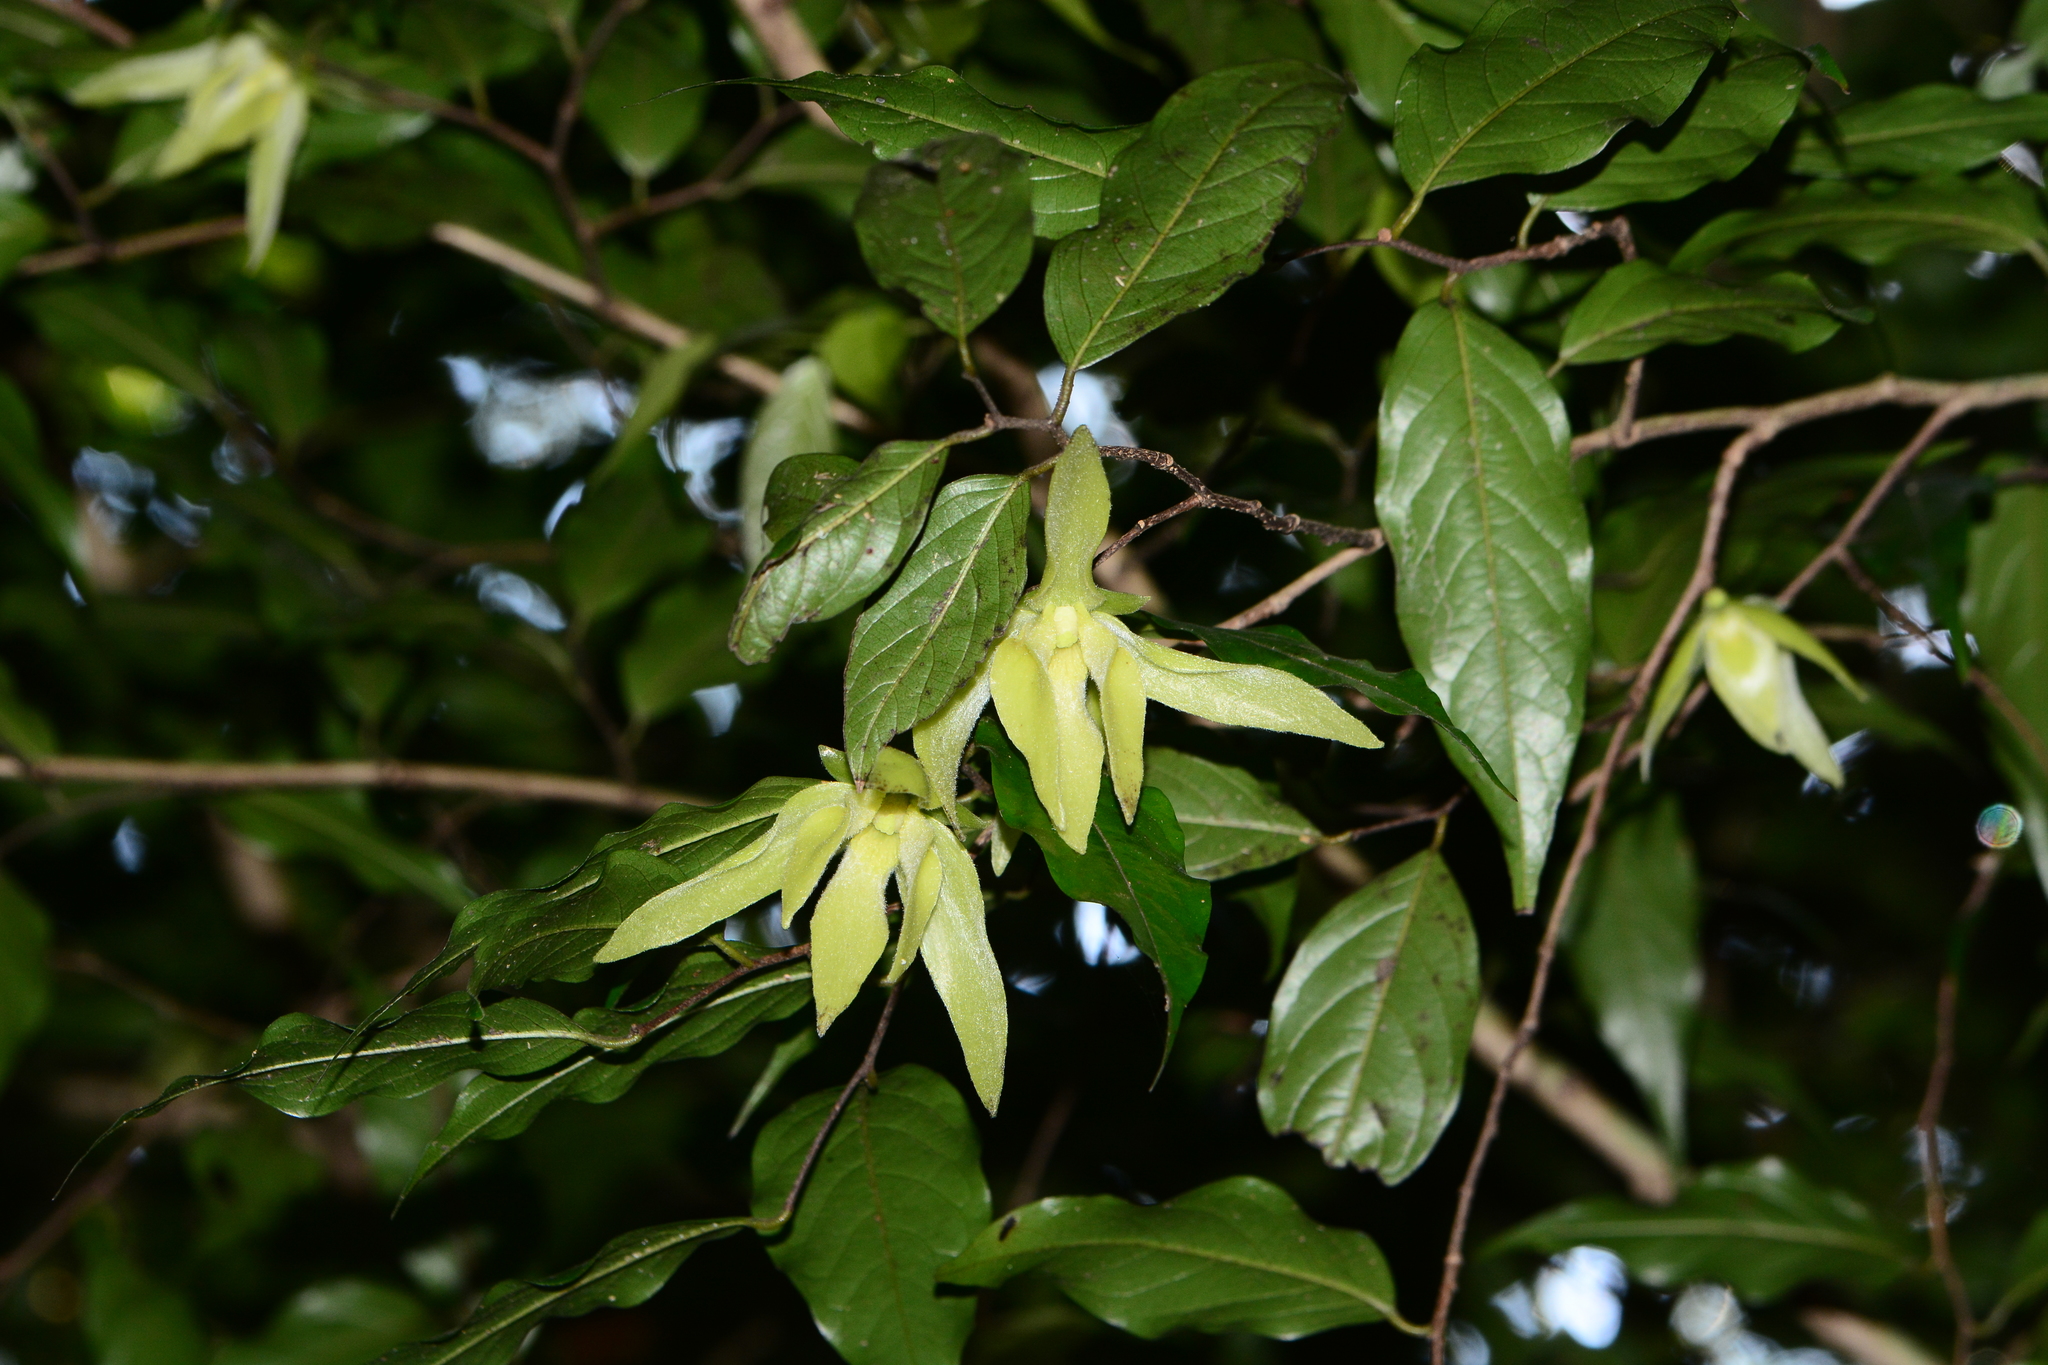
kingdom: Plantae
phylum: Tracheophyta
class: Magnoliopsida
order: Magnoliales
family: Annonaceae
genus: Meiogyne
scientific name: Meiogyne pannosa
